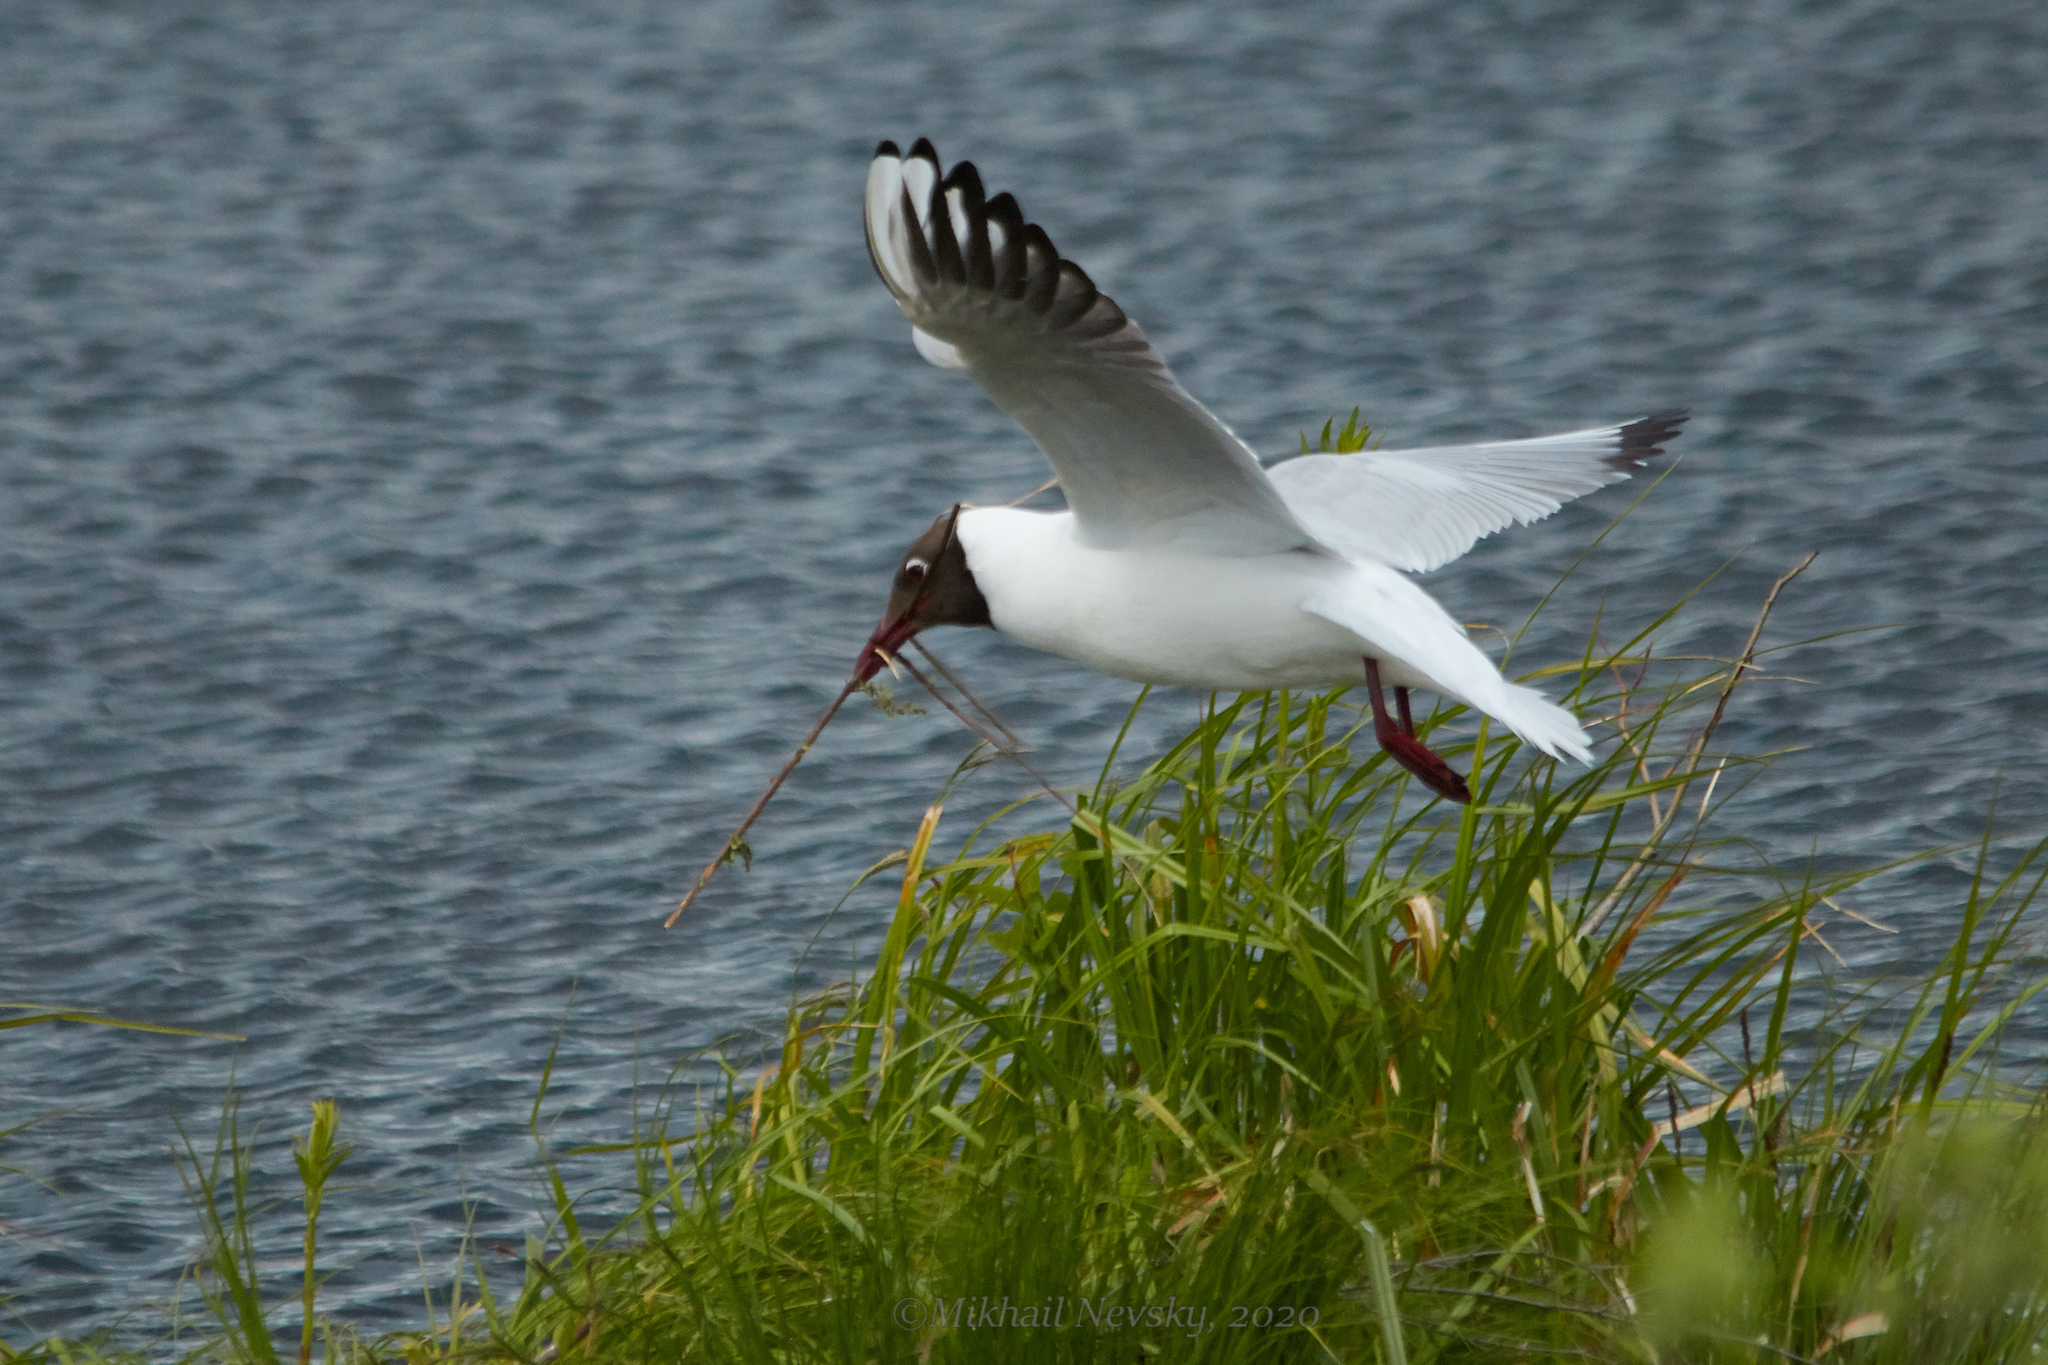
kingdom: Animalia
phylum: Chordata
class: Aves
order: Charadriiformes
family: Laridae
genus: Chroicocephalus
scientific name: Chroicocephalus ridibundus
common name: Black-headed gull
